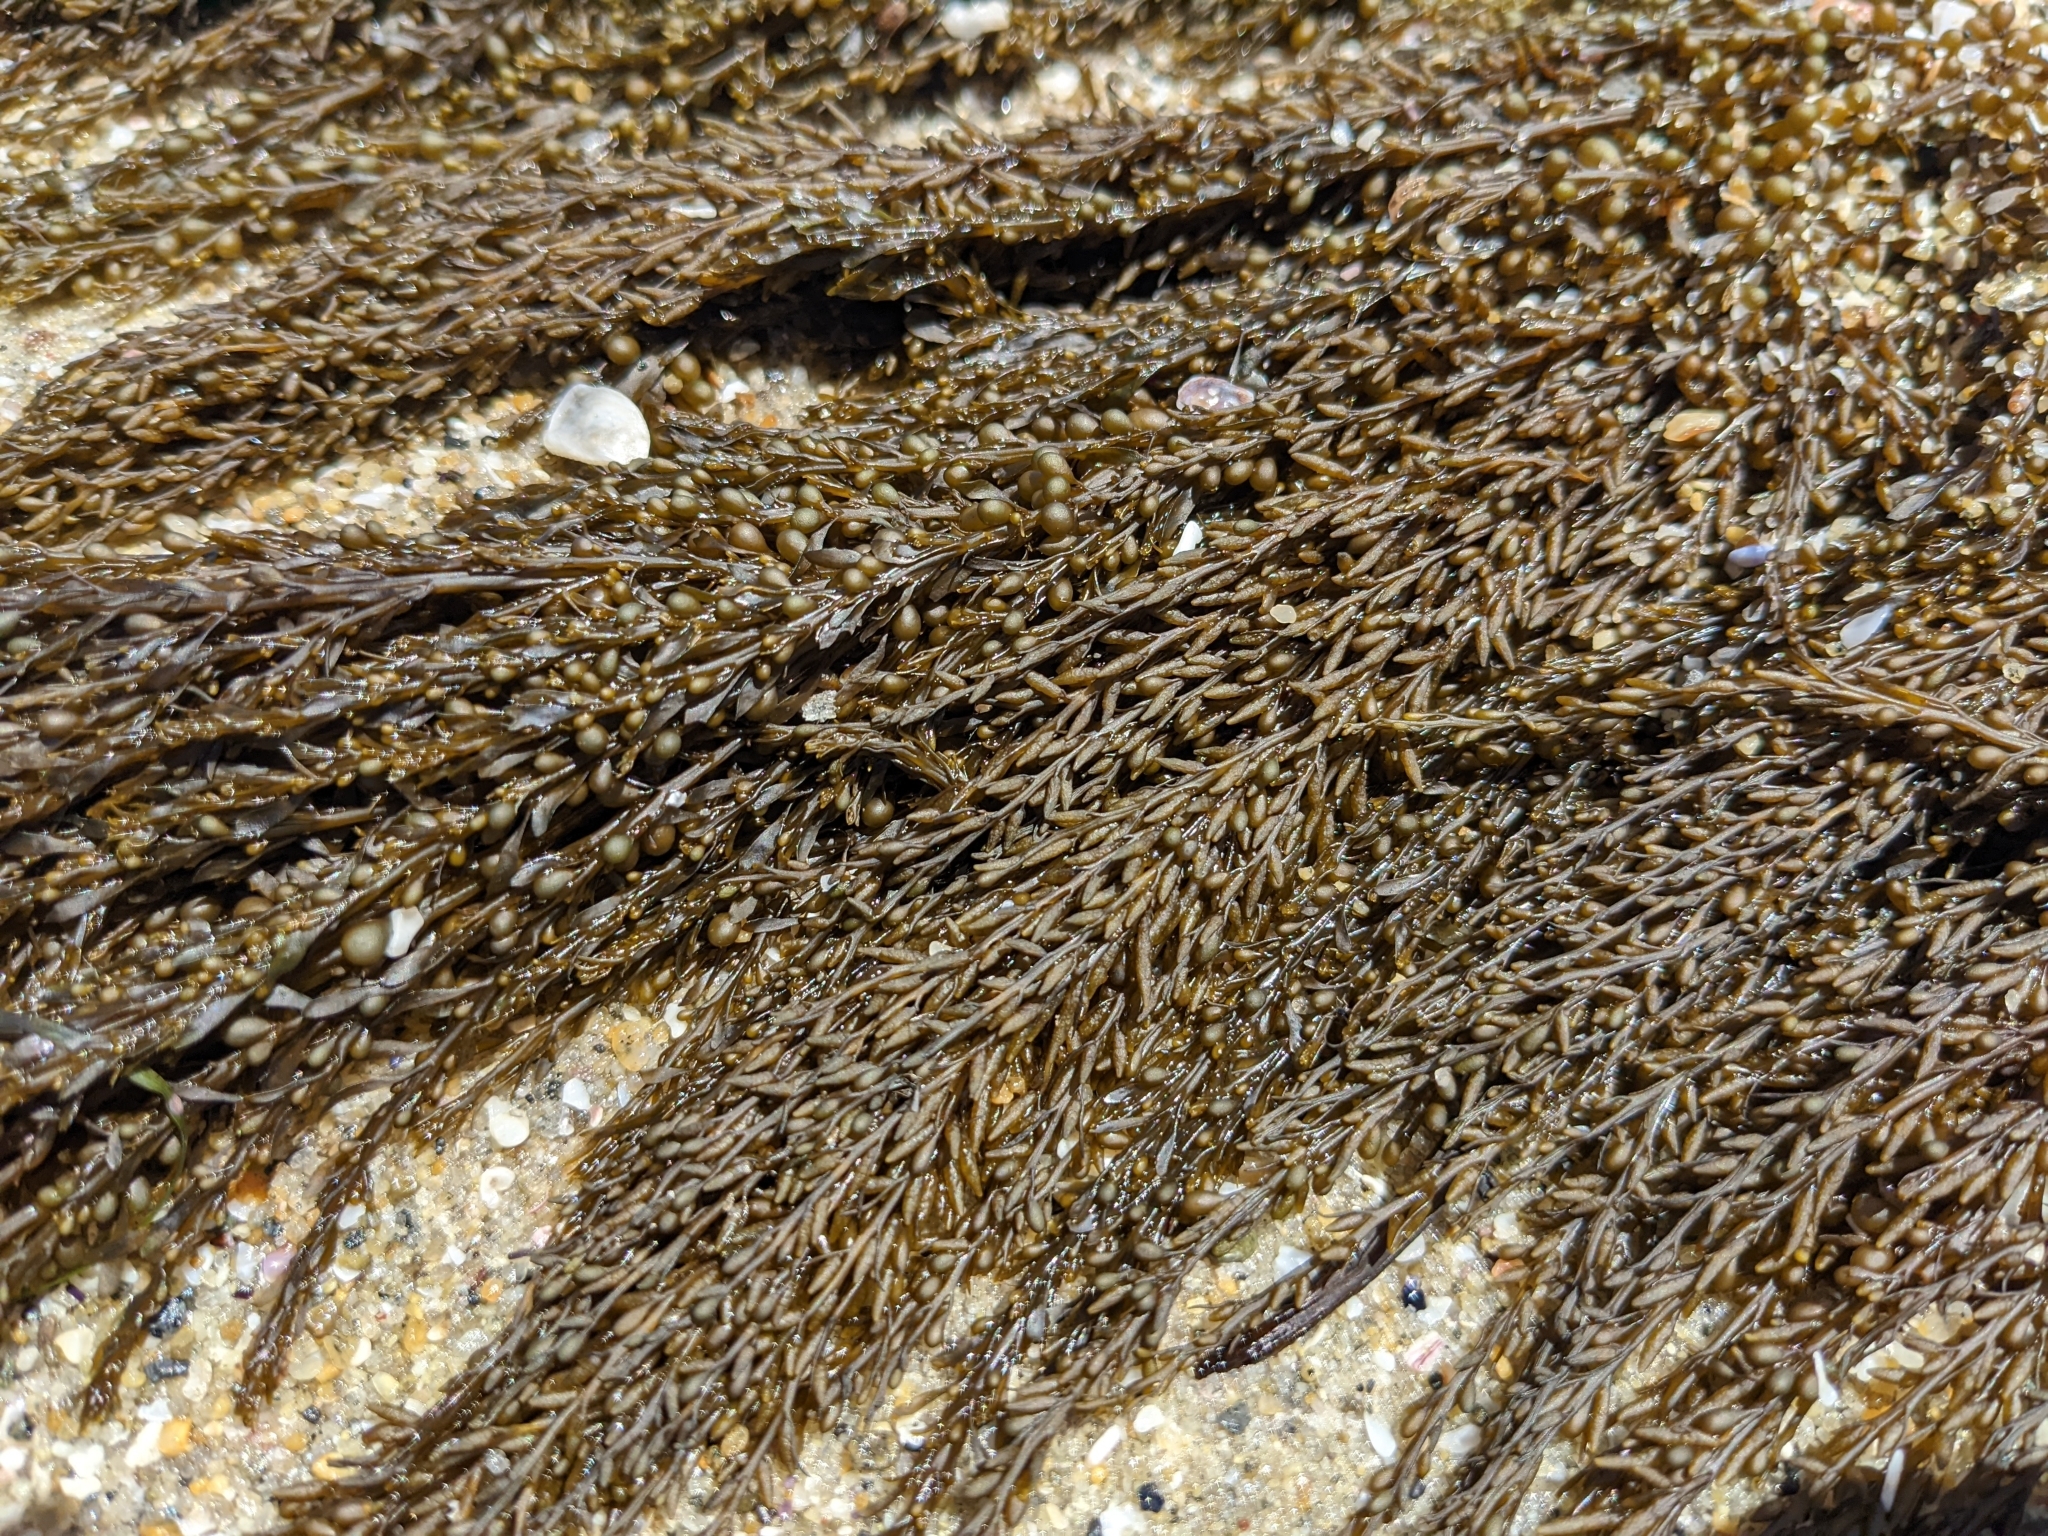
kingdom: Chromista
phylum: Ochrophyta
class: Phaeophyceae
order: Fucales
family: Sargassaceae
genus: Sargassum
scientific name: Sargassum muticum
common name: Japweed
